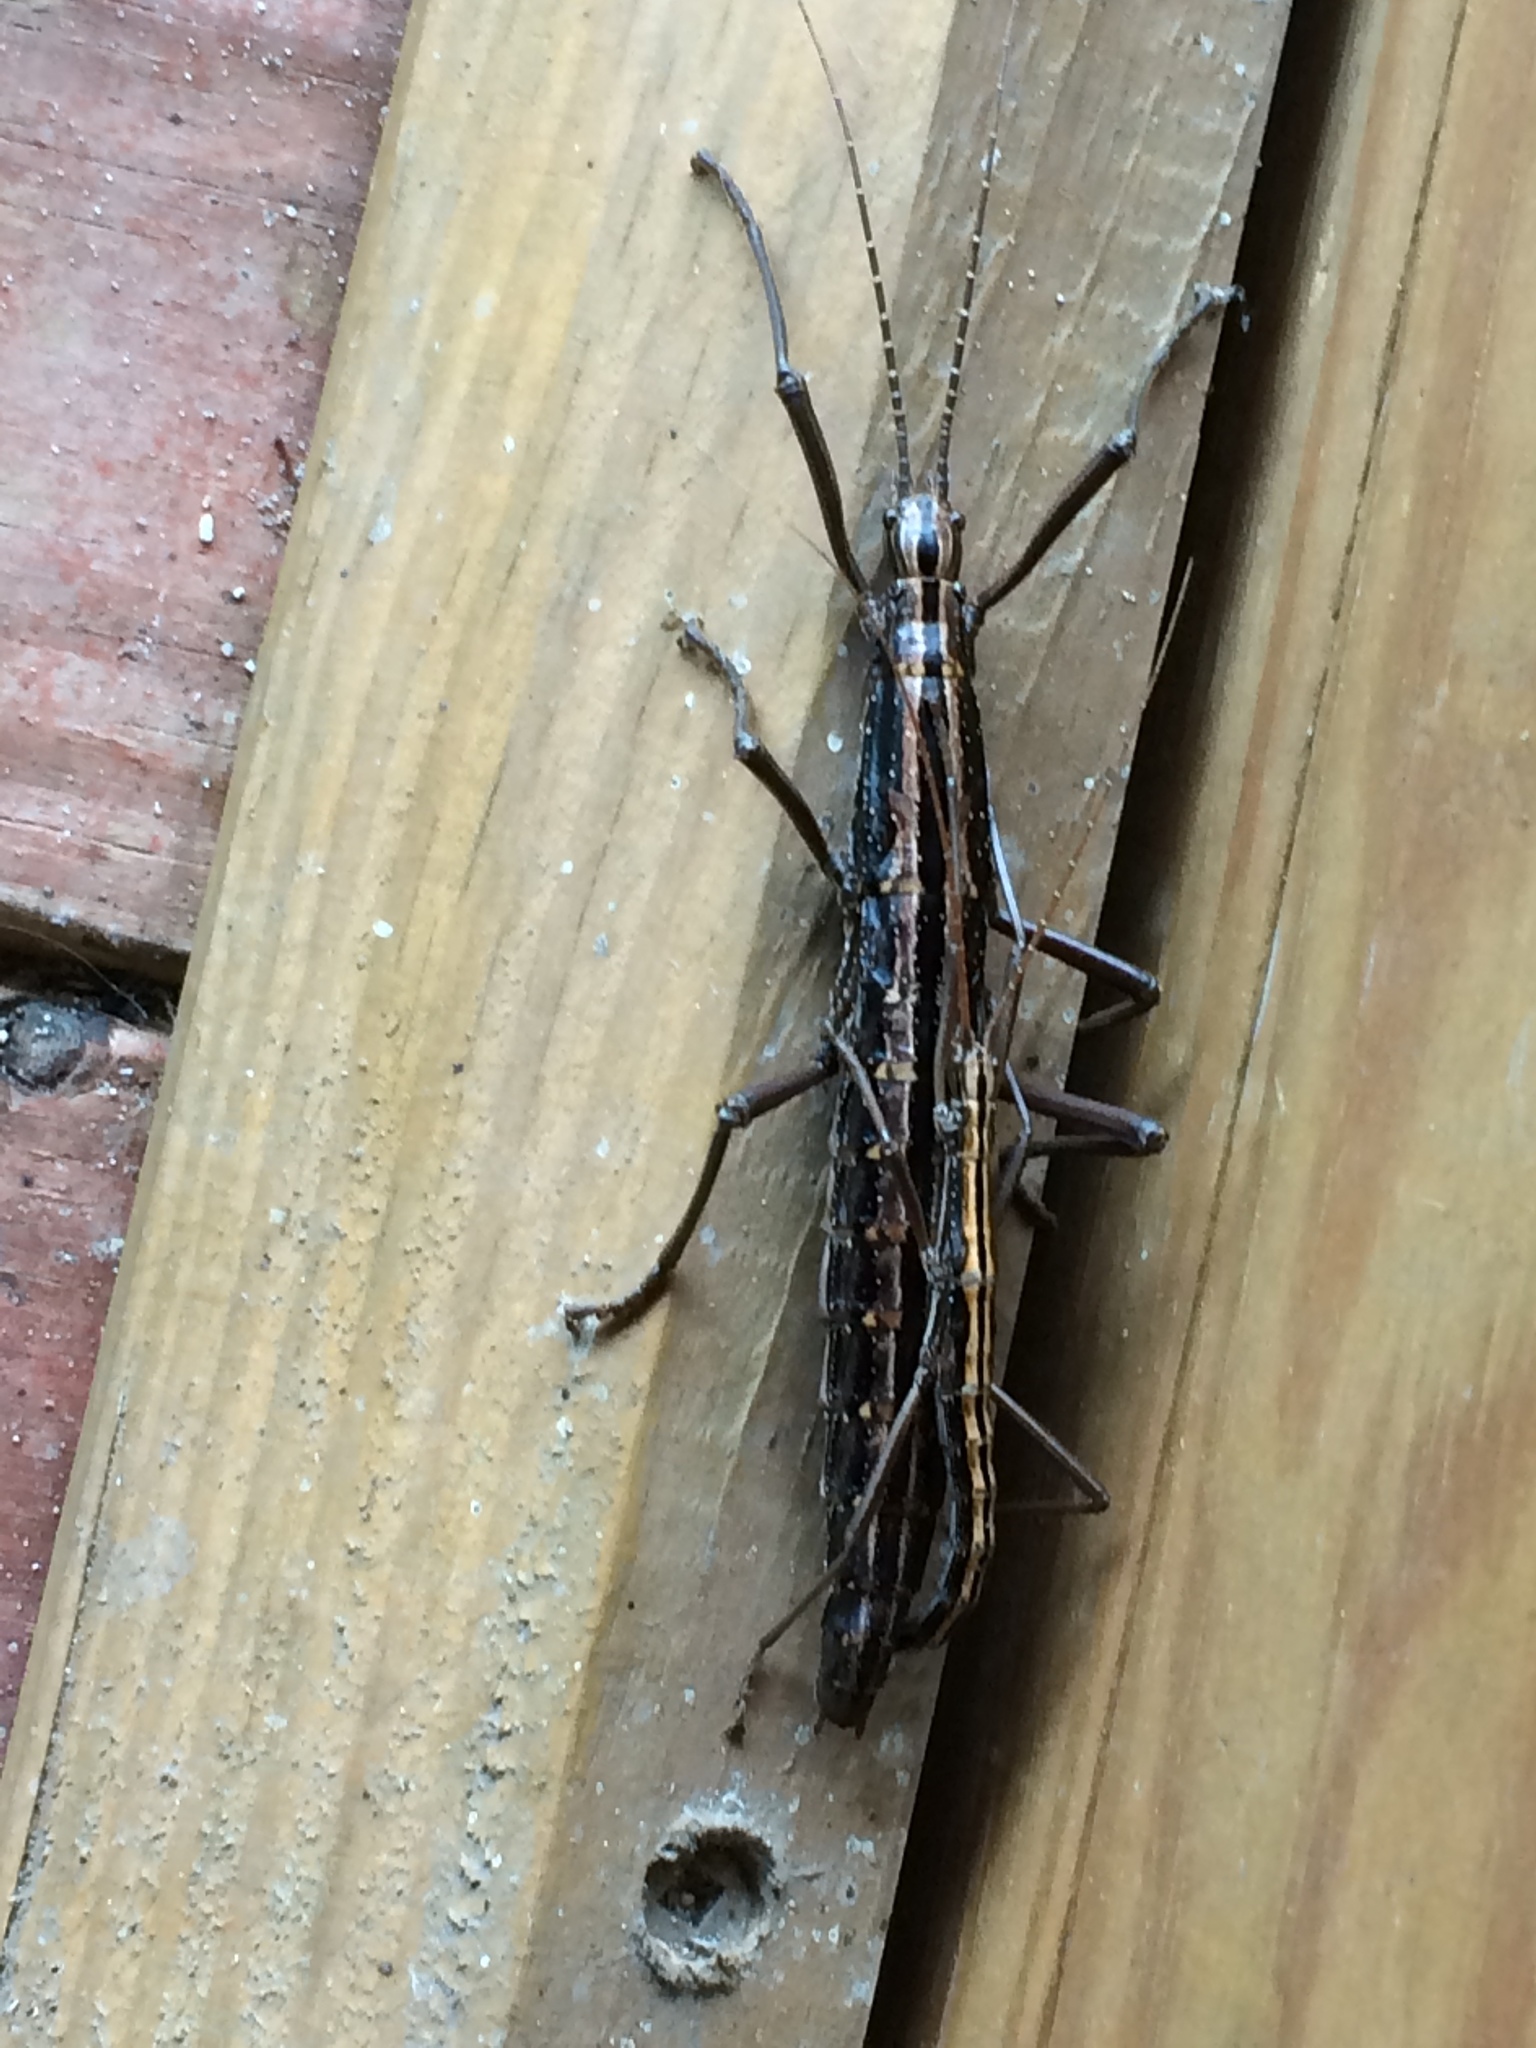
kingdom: Animalia
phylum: Arthropoda
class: Insecta
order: Phasmida
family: Pseudophasmatidae
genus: Anisomorpha
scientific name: Anisomorpha buprestoides
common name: Florida stick insect
